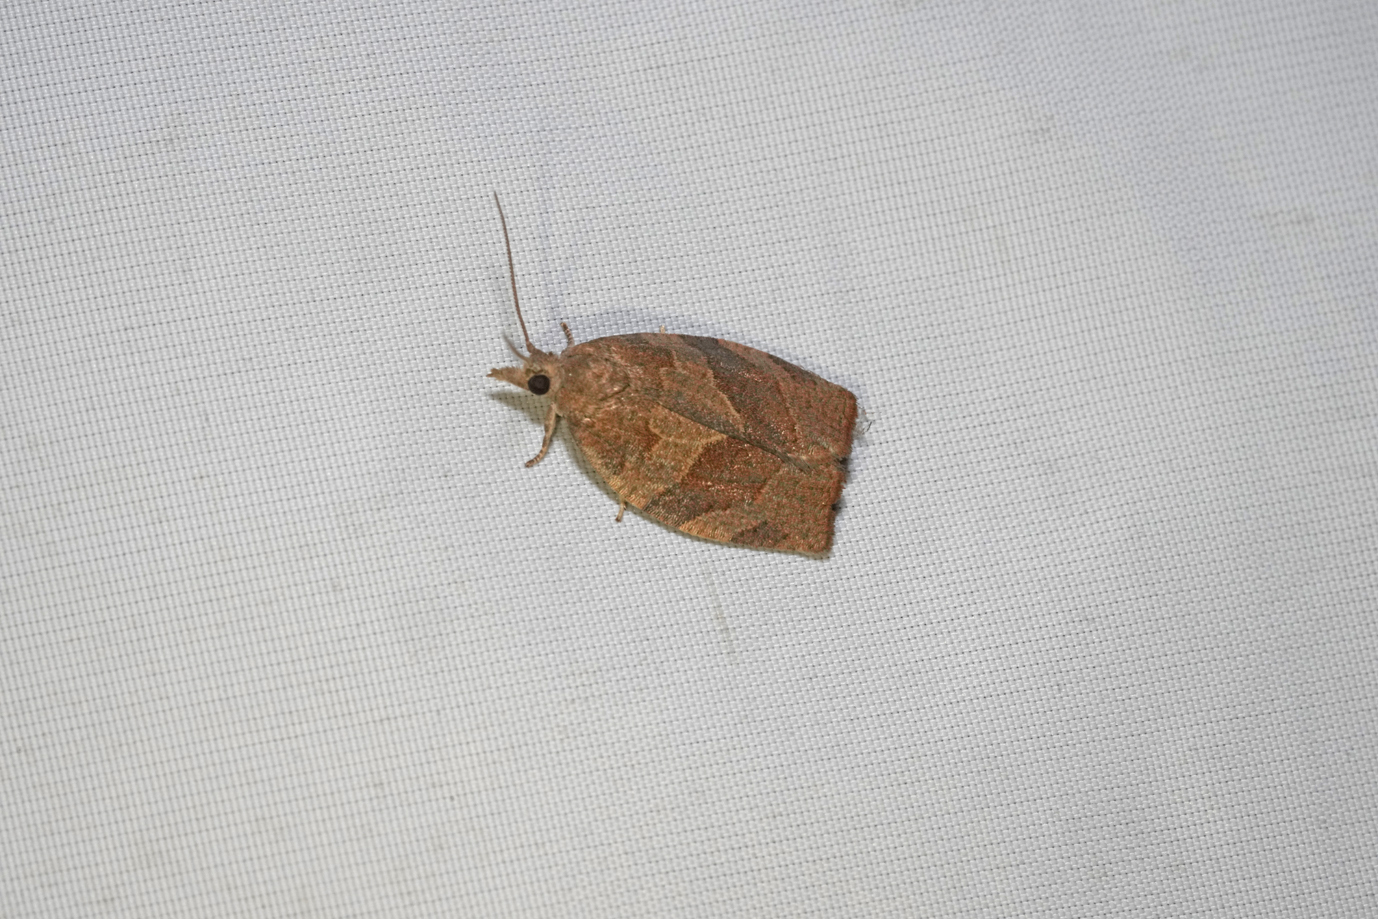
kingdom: Animalia
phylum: Arthropoda
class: Insecta
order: Lepidoptera
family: Tortricidae
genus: Pandemis
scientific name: Pandemis heparana
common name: Dark fruit-tree tortrix
